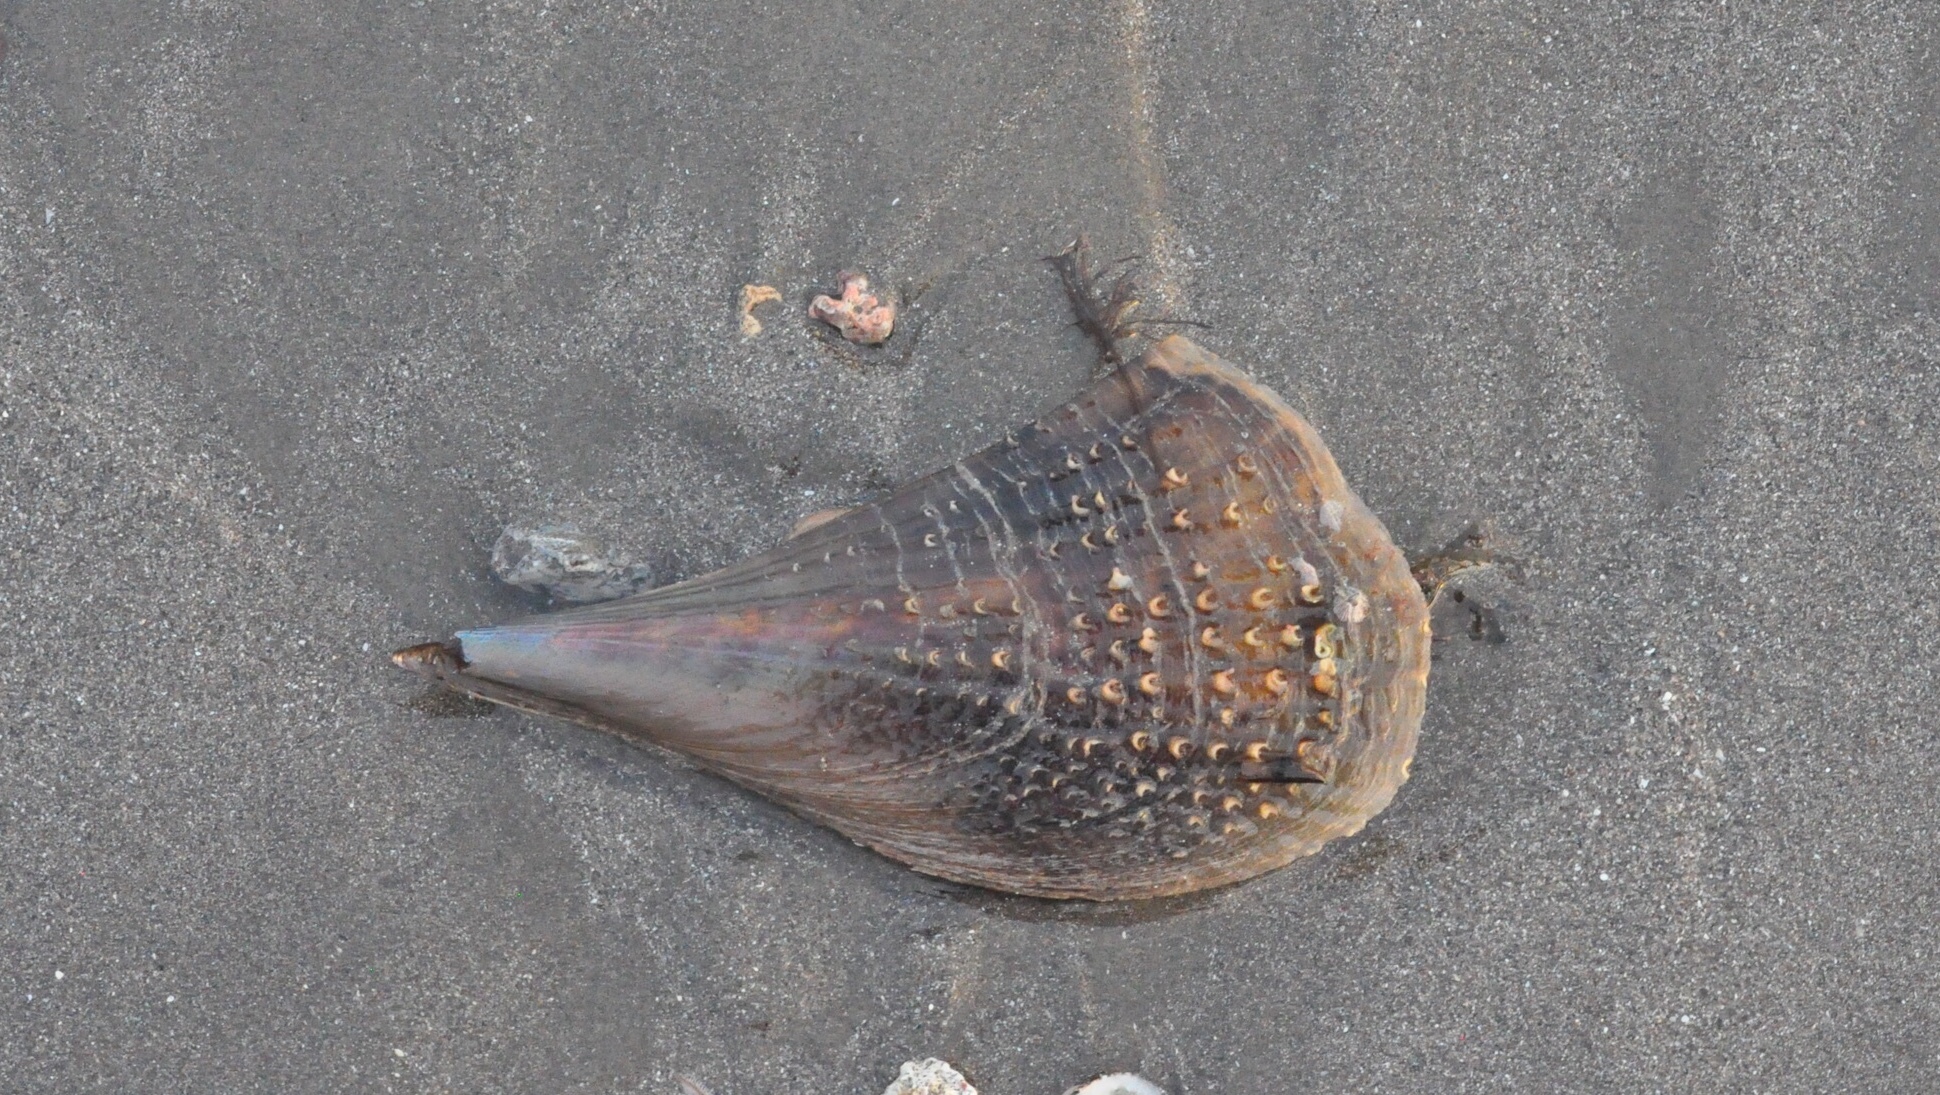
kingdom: Animalia
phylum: Mollusca
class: Bivalvia
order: Ostreida
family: Pinnidae
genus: Atrina
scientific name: Atrina rigida
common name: Stiff penshell
